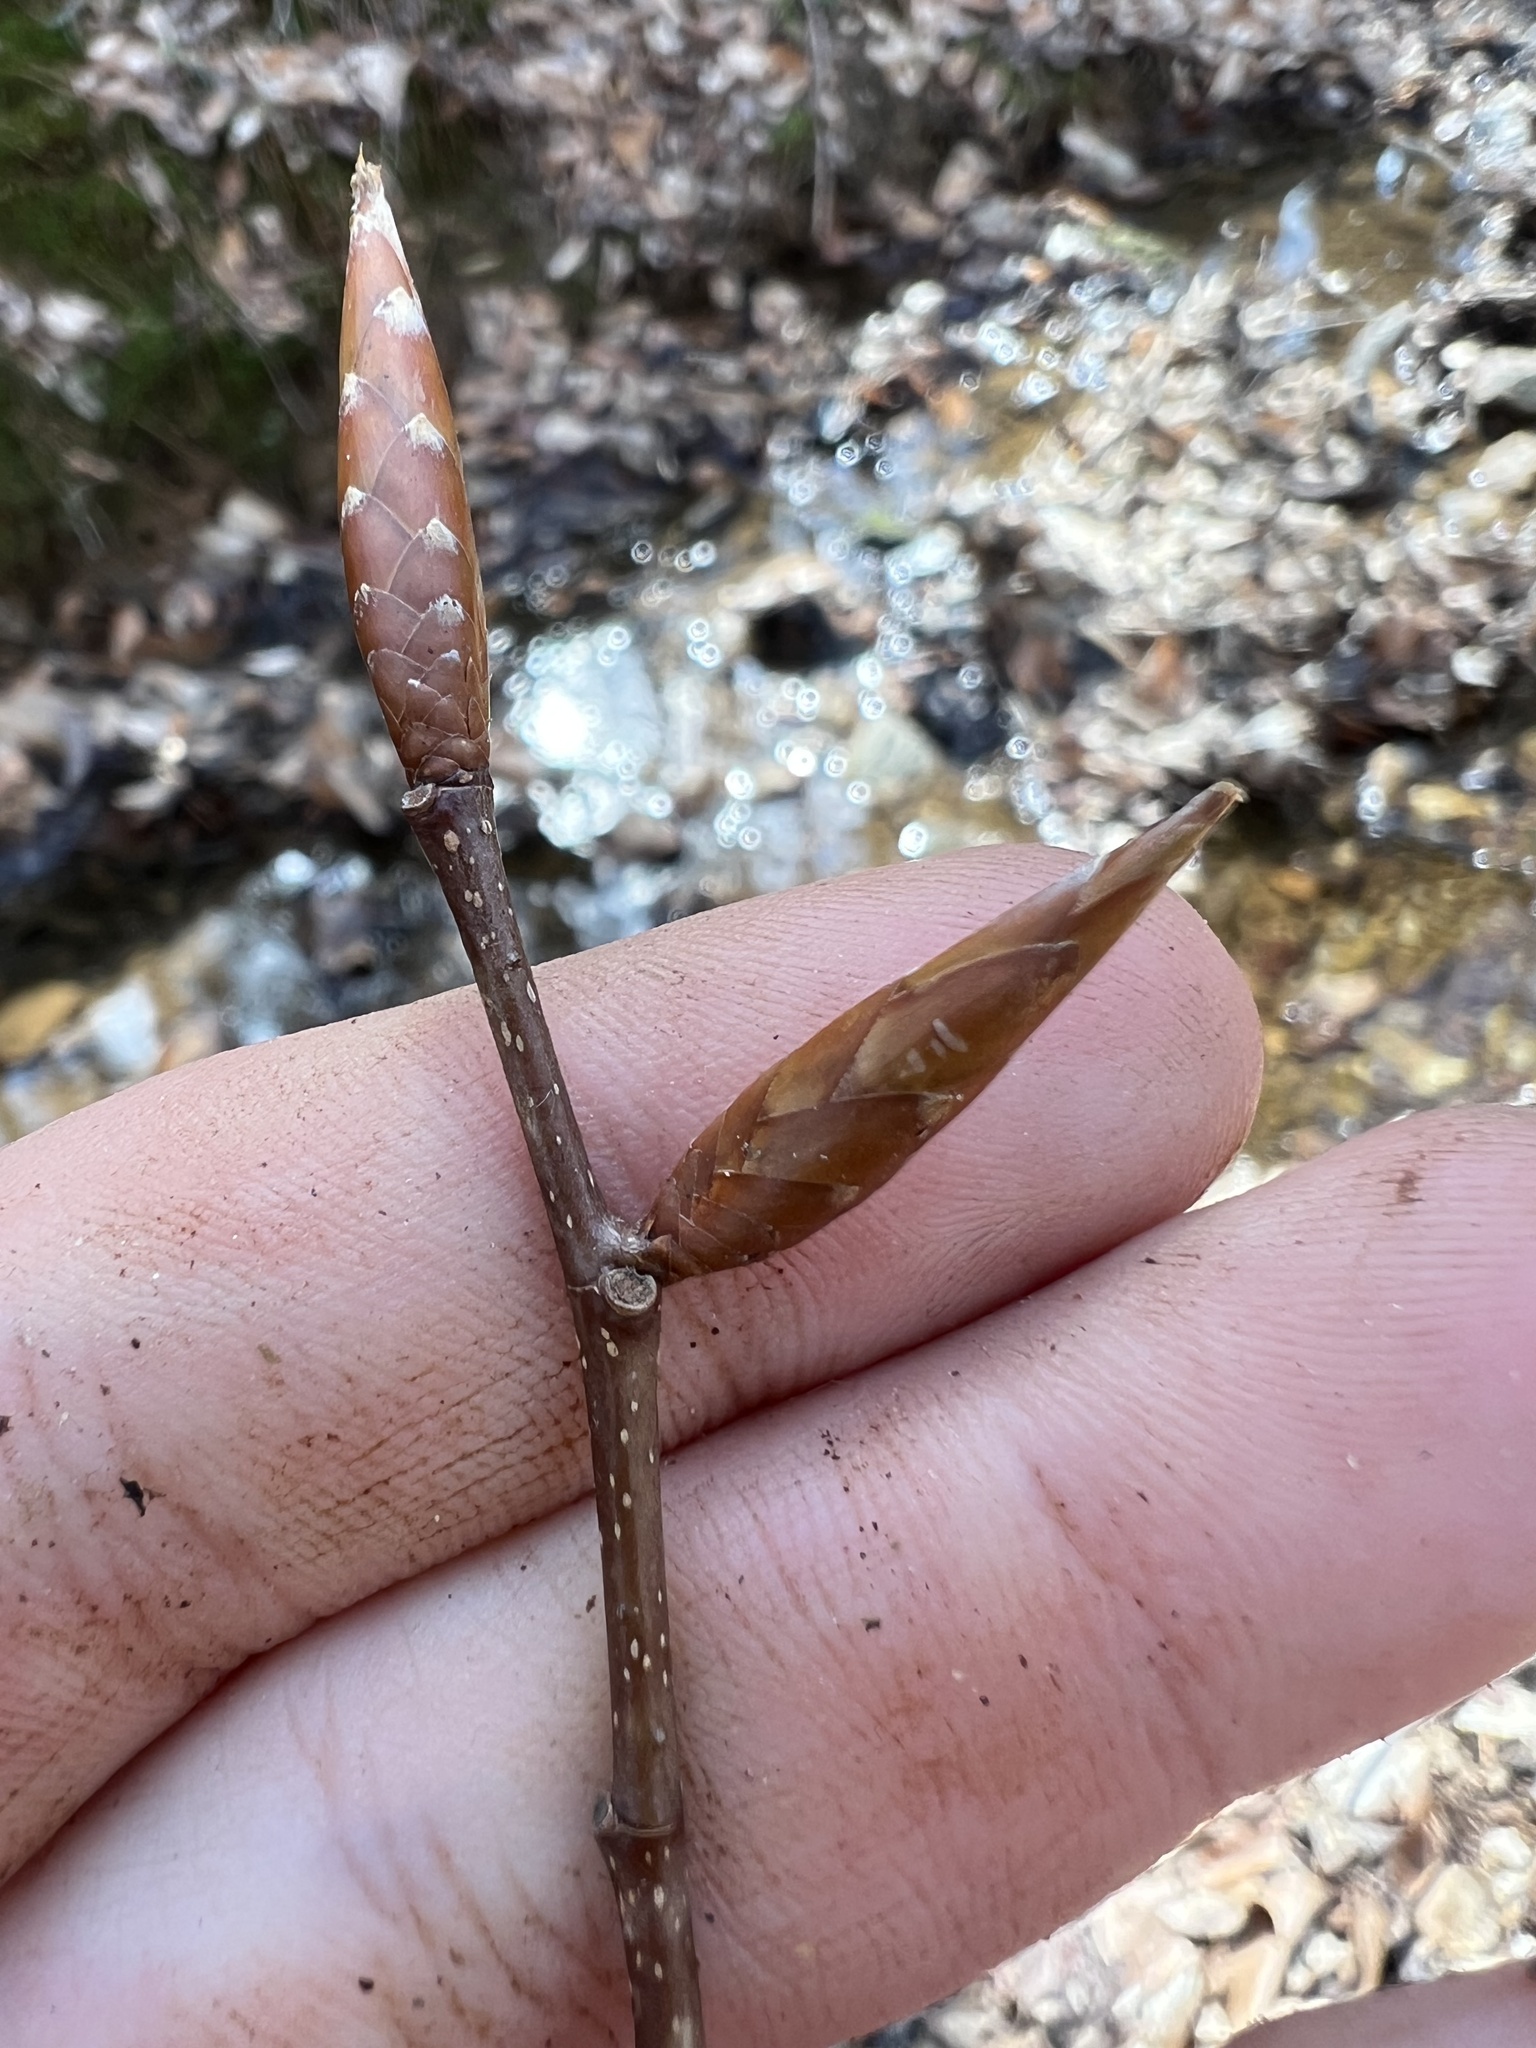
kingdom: Plantae
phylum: Tracheophyta
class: Magnoliopsida
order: Fagales
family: Fagaceae
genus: Fagus
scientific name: Fagus grandifolia
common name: American beech
